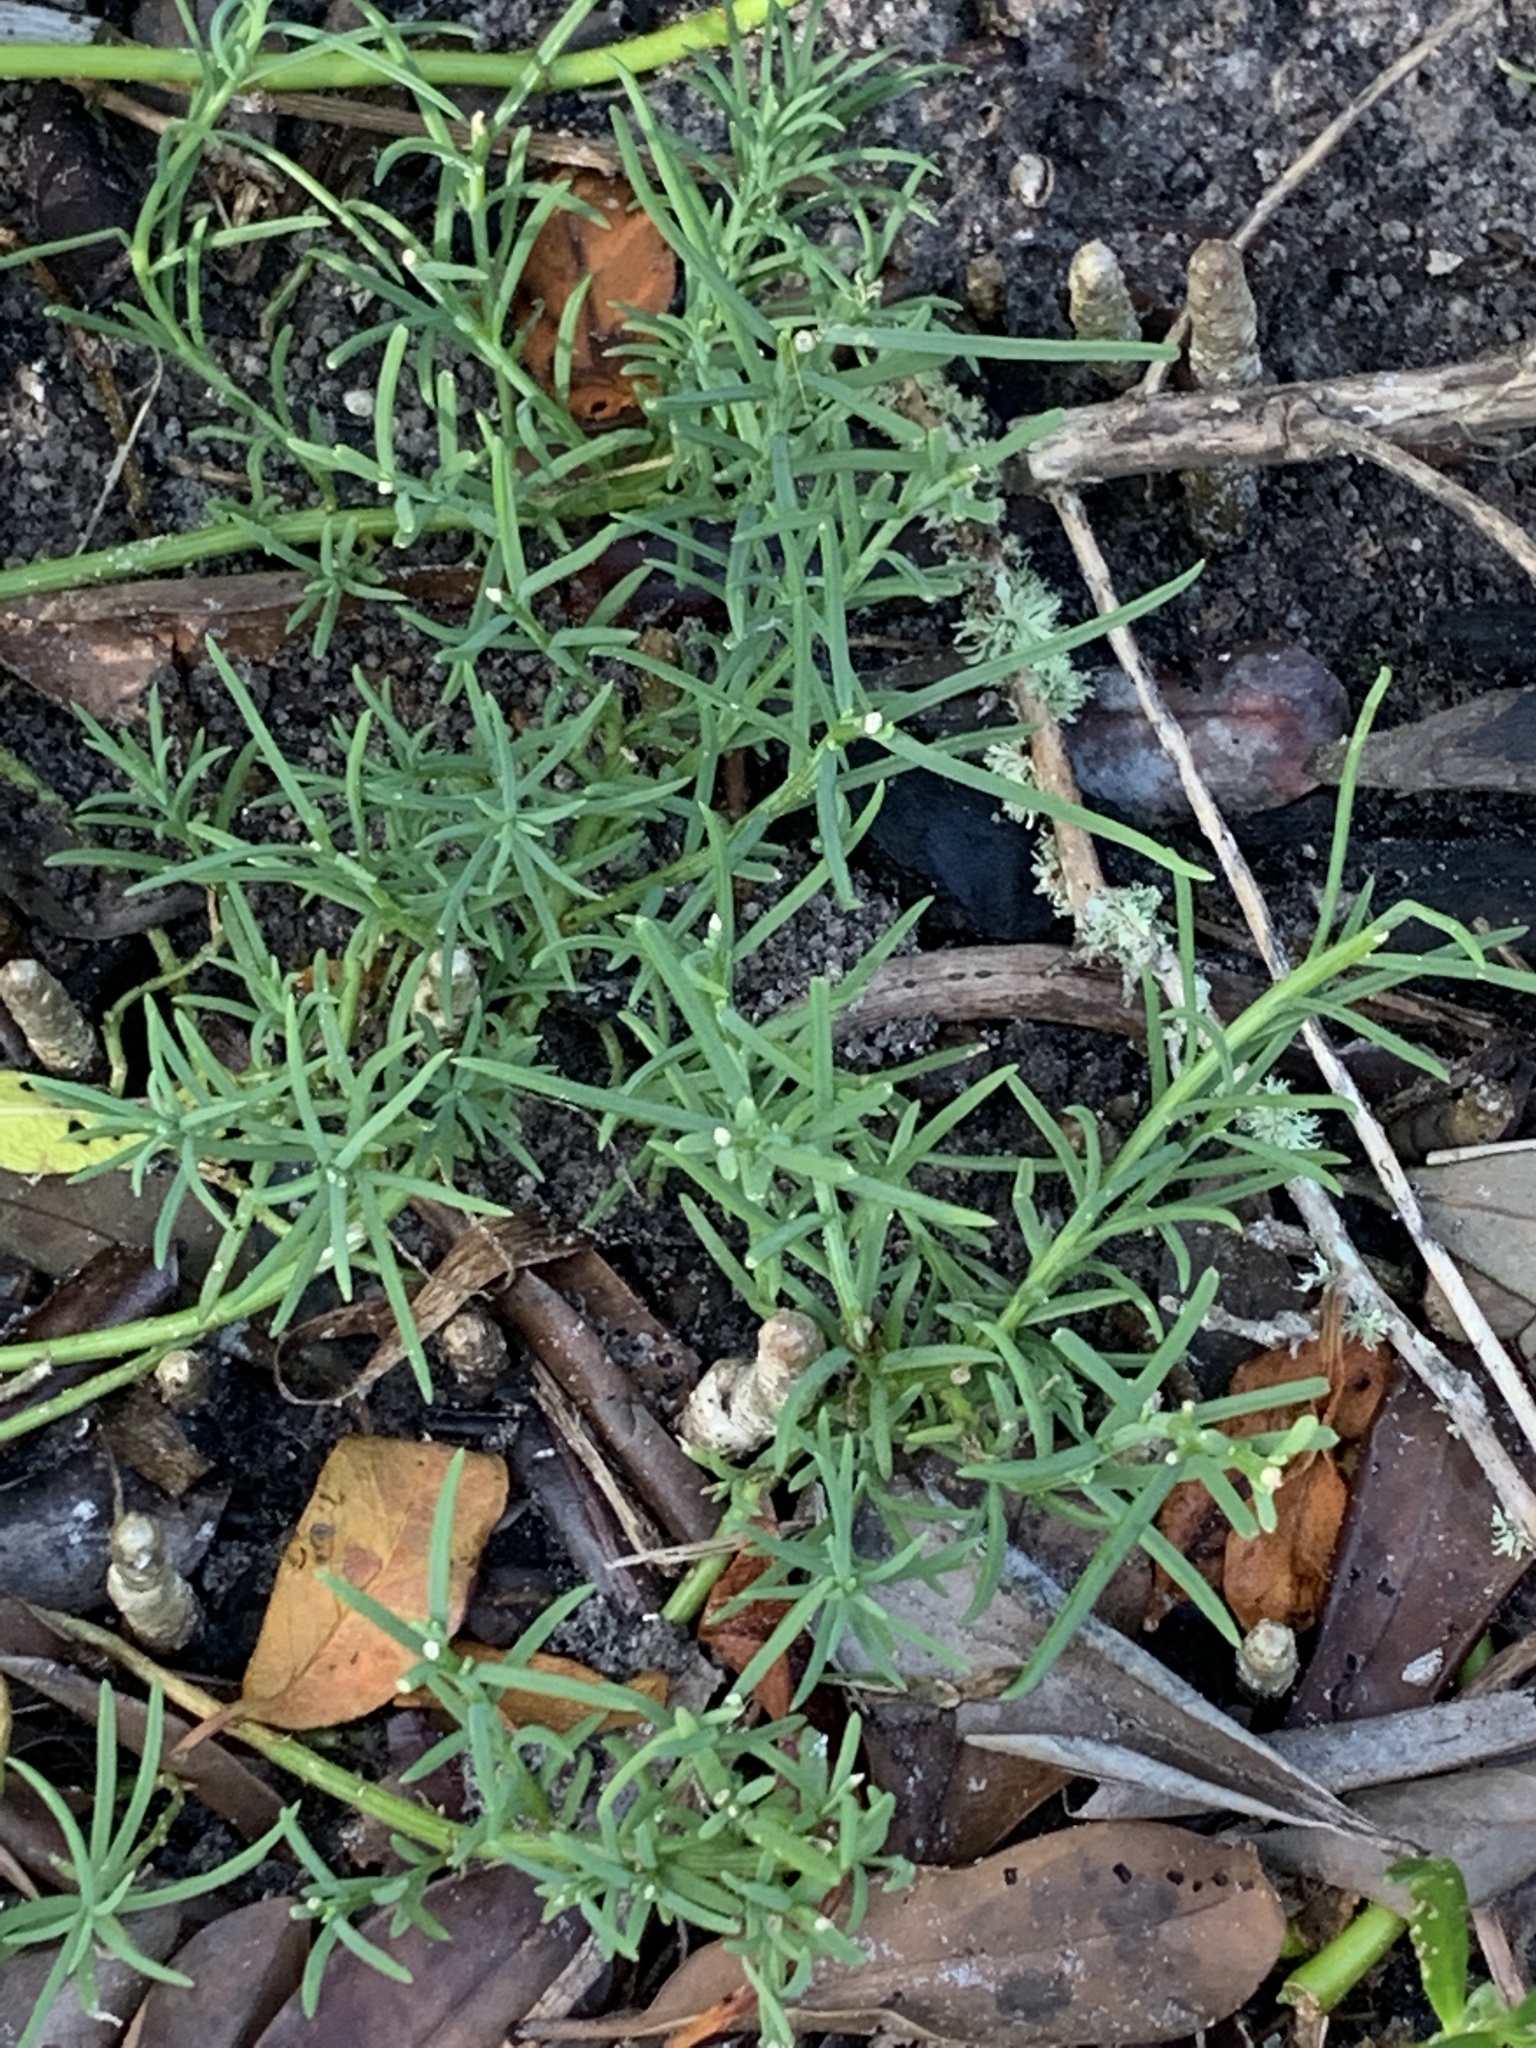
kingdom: Plantae
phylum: Tracheophyta
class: Magnoliopsida
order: Caryophyllales
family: Amaranthaceae
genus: Suaeda
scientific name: Suaeda linearis
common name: Annual seepweed
